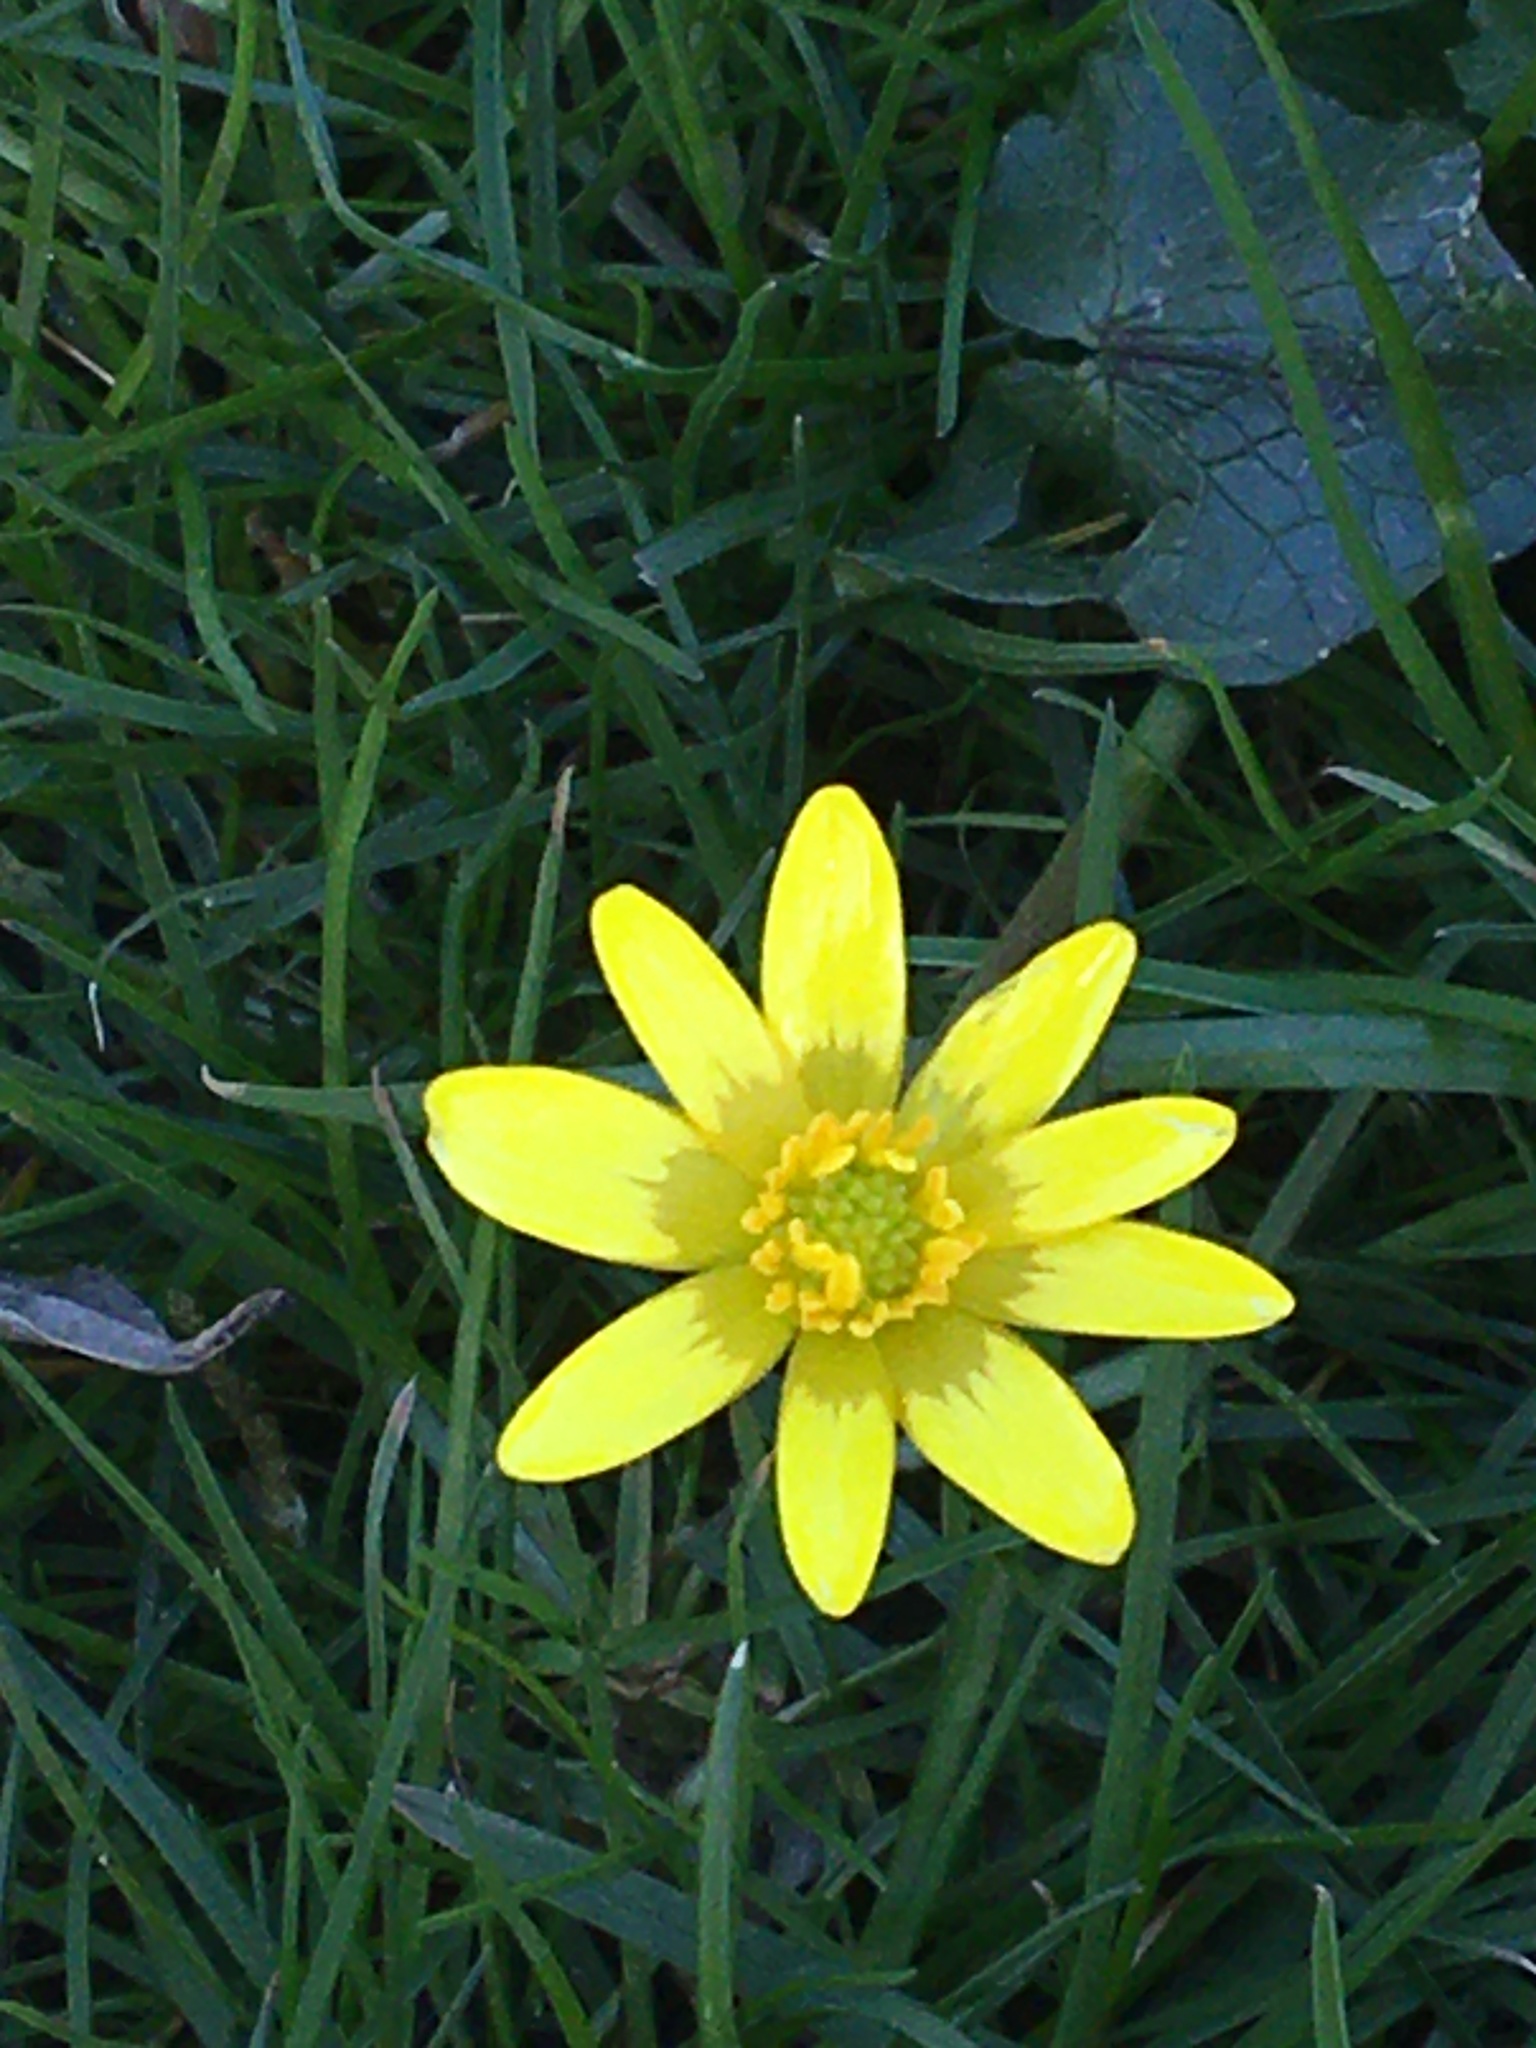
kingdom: Plantae
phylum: Tracheophyta
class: Magnoliopsida
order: Ranunculales
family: Ranunculaceae
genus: Ficaria
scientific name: Ficaria verna
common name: Lesser celandine
